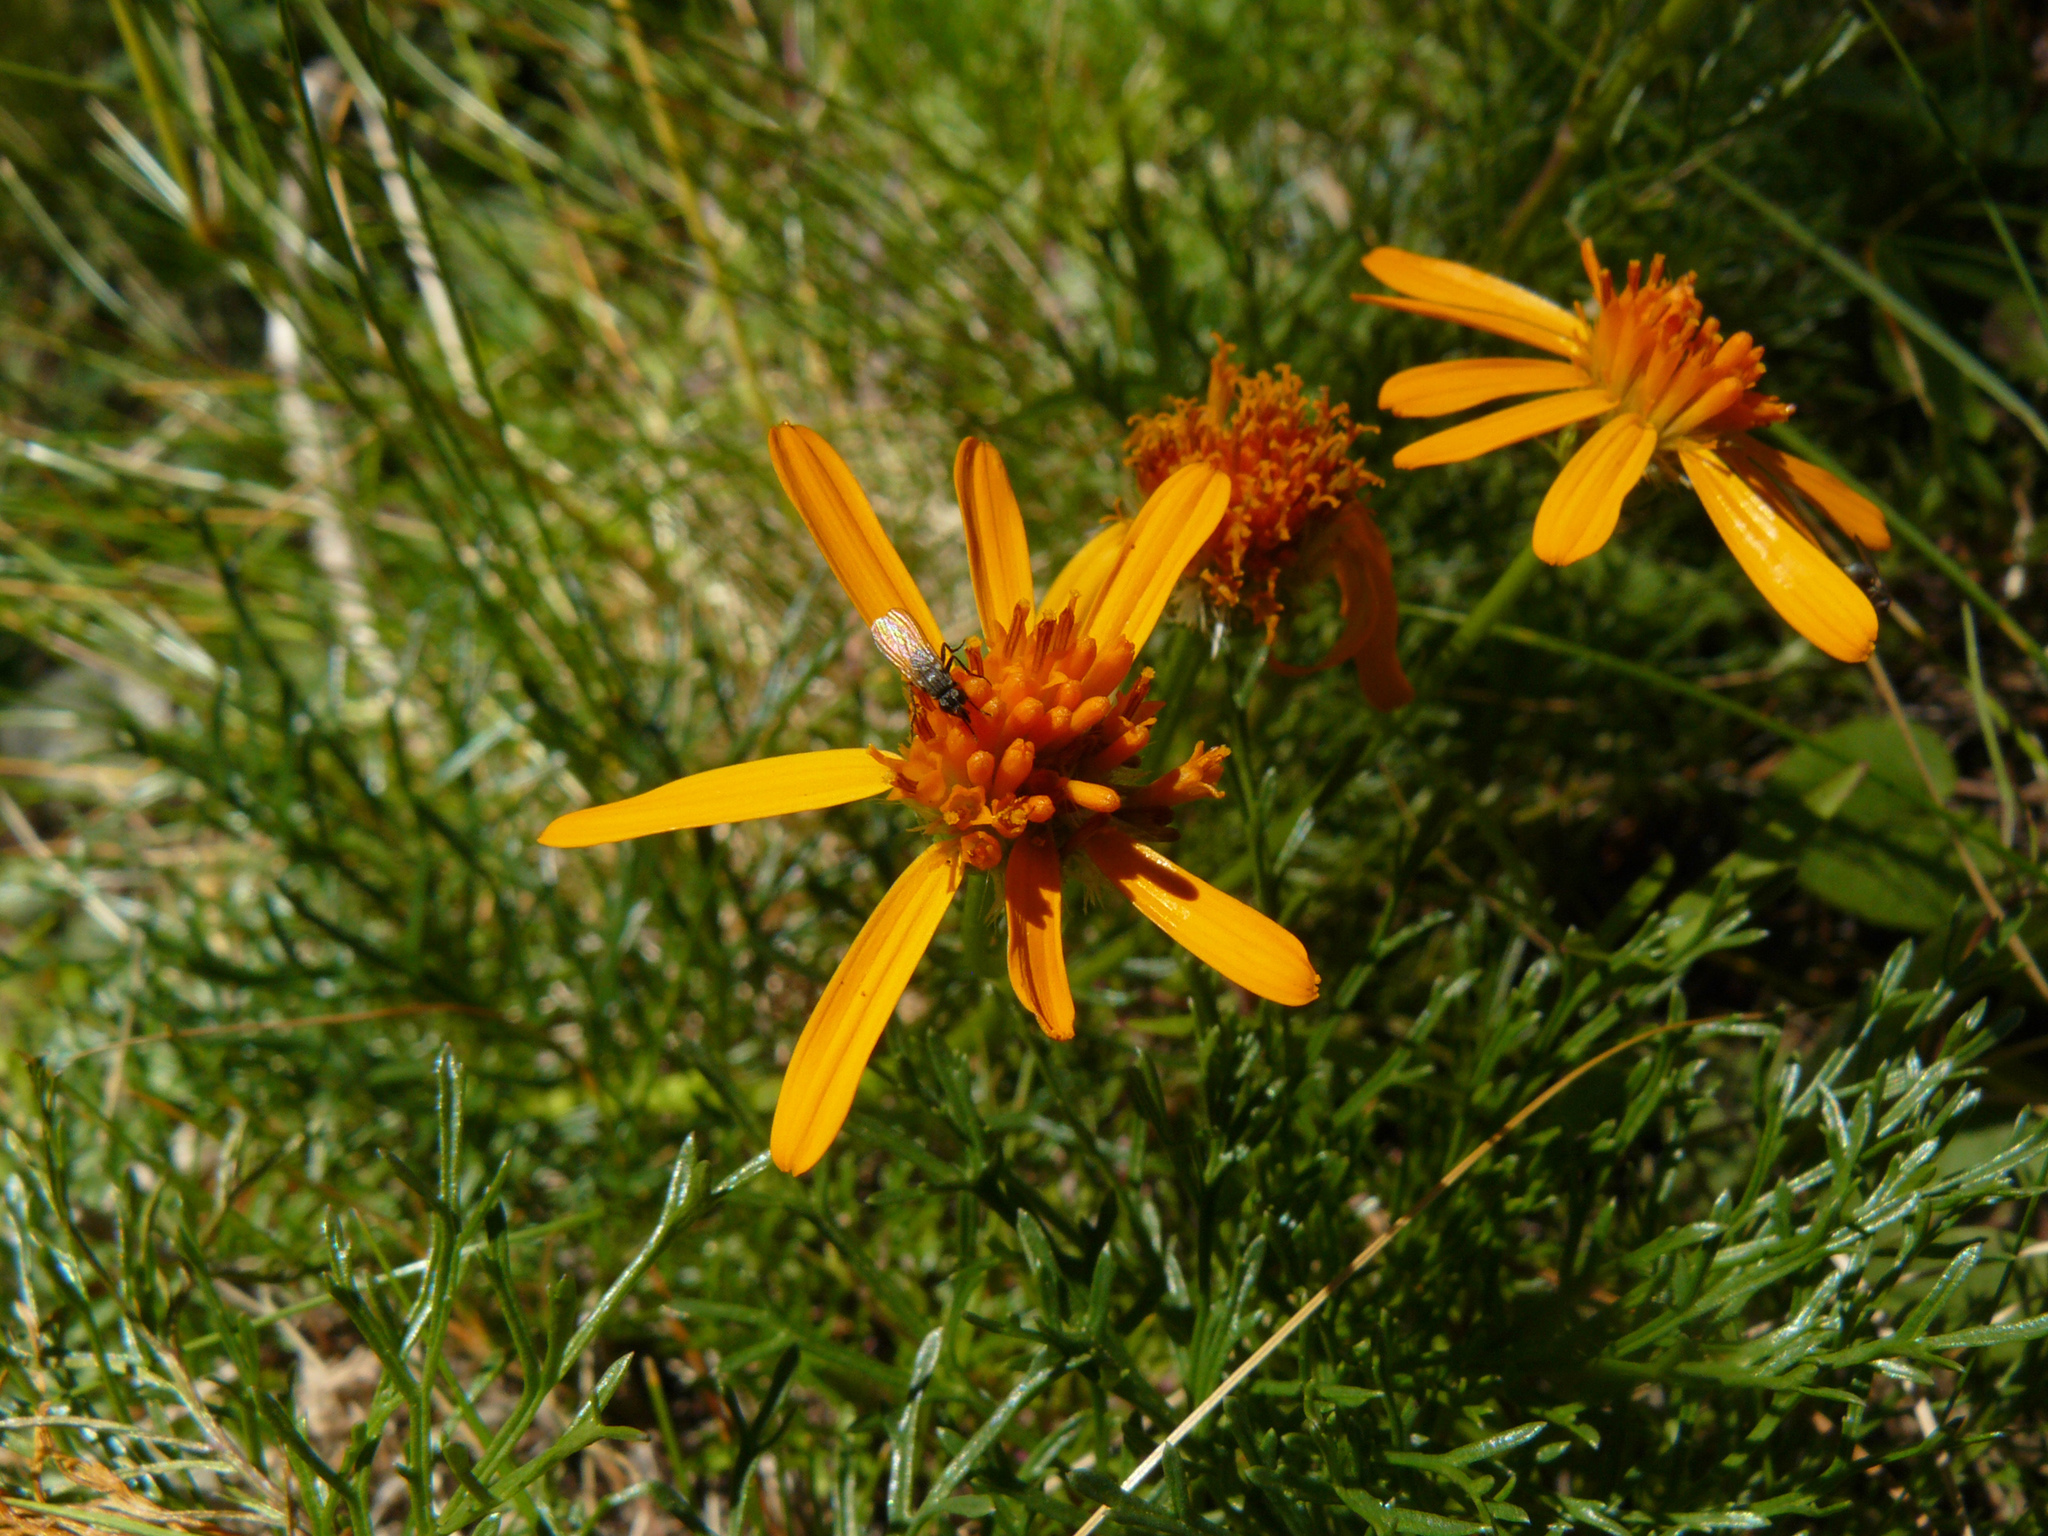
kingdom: Plantae
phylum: Tracheophyta
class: Magnoliopsida
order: Asterales
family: Asteraceae
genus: Jacobaea
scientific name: Jacobaea abrotanifolia
